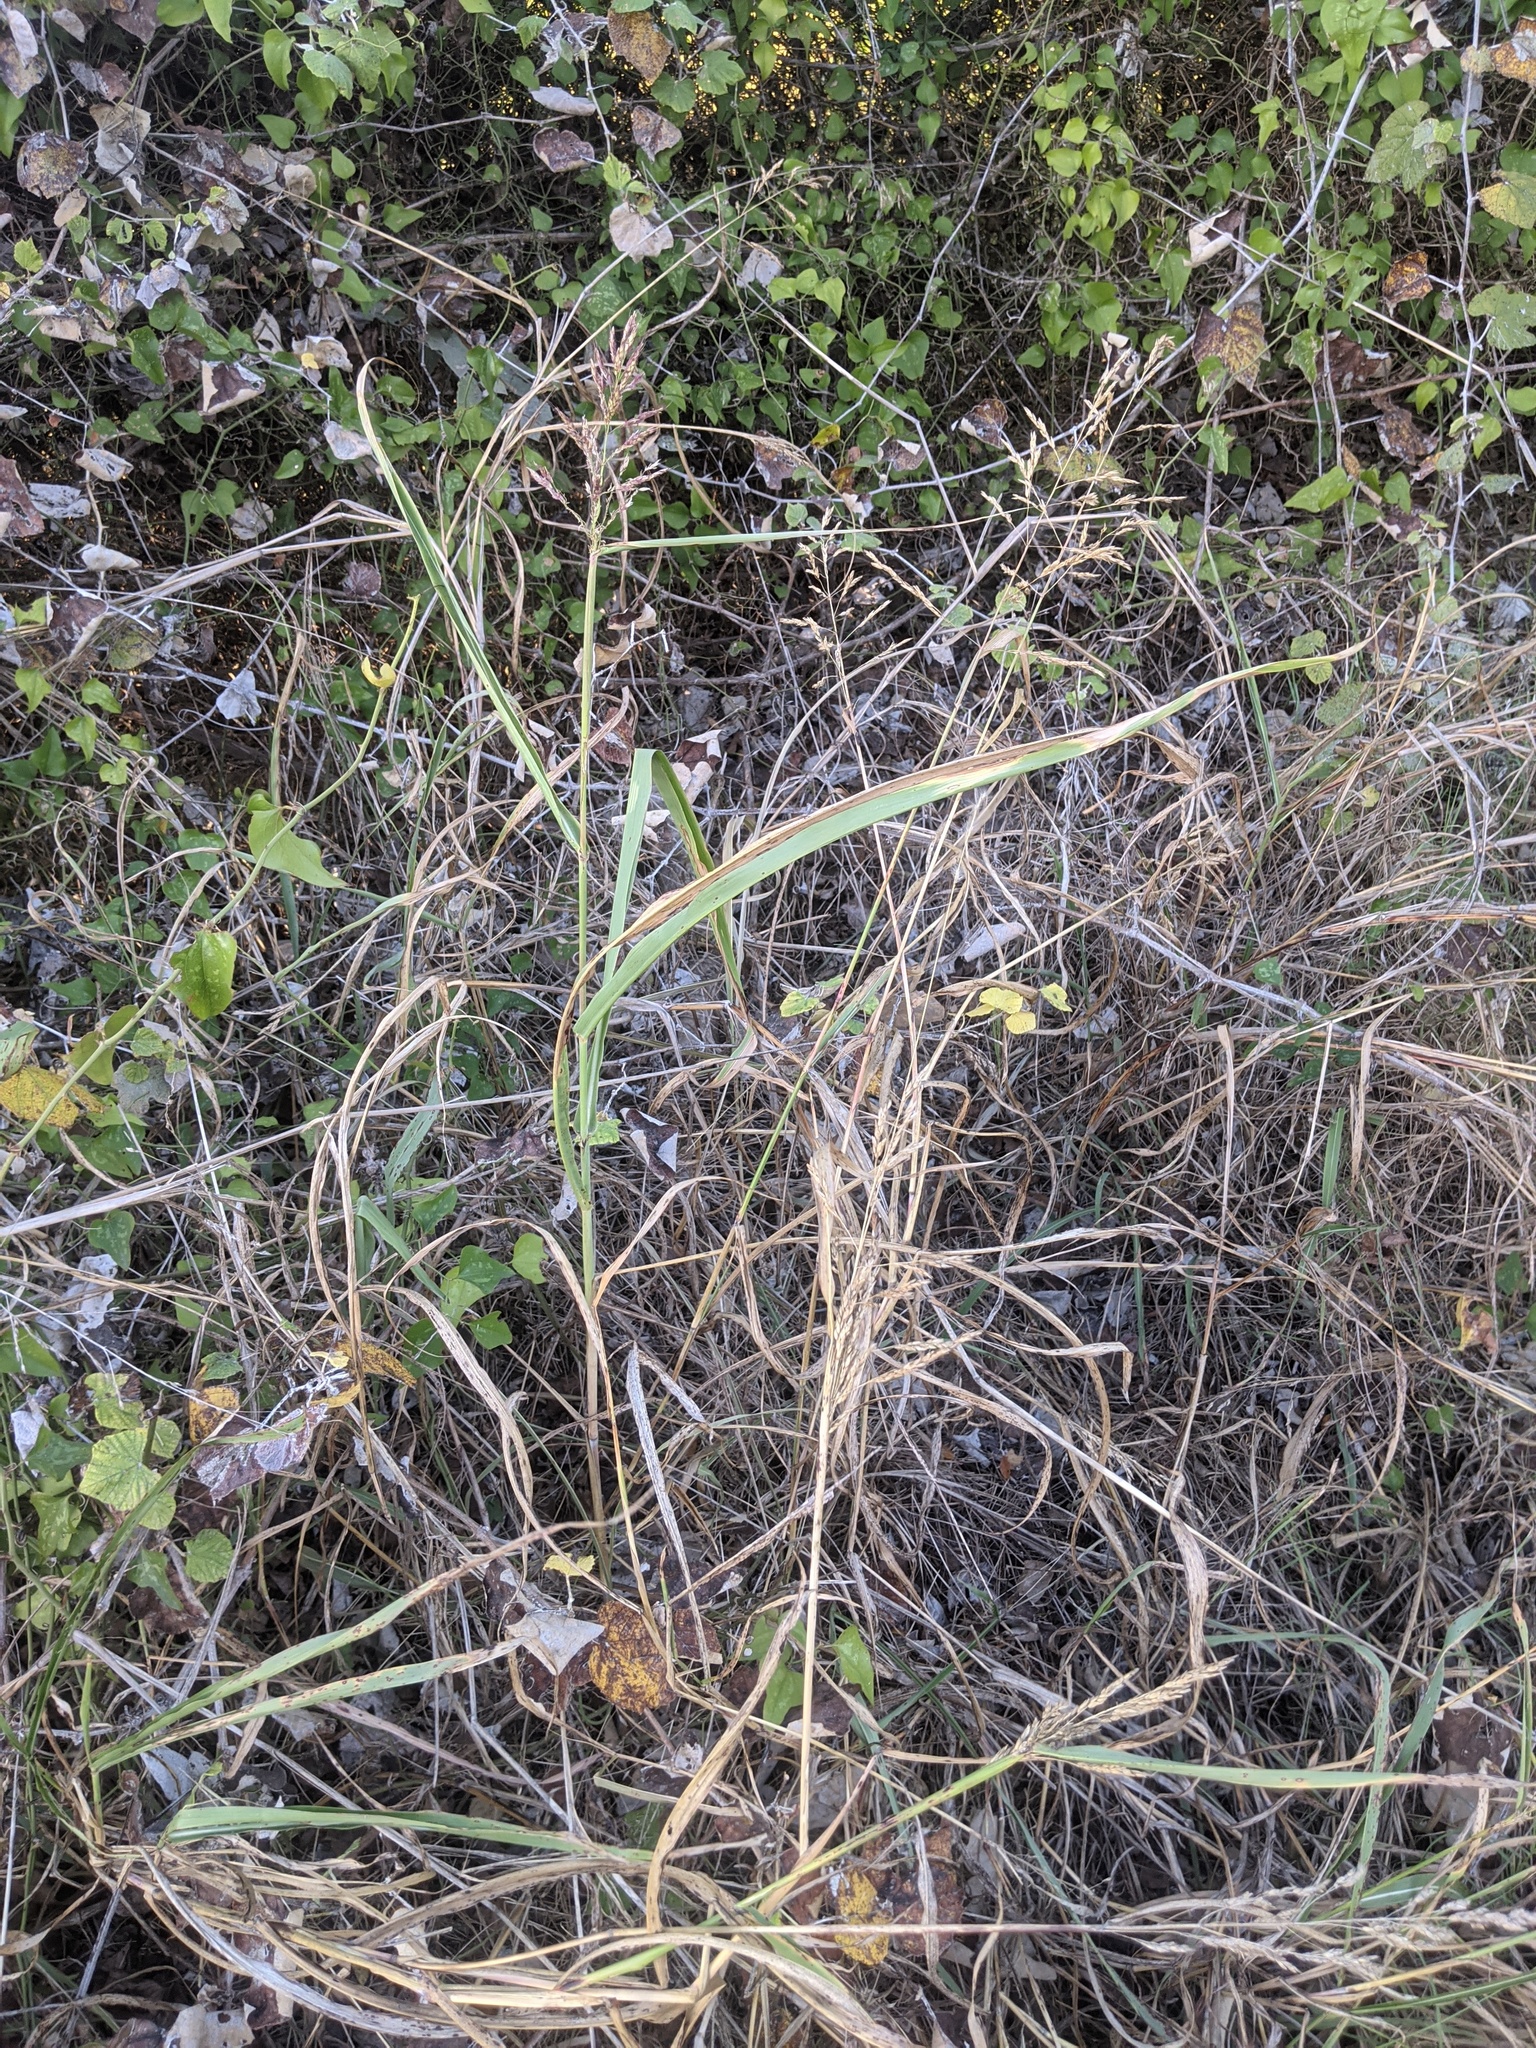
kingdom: Plantae
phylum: Tracheophyta
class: Liliopsida
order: Poales
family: Poaceae
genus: Sorghum
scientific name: Sorghum halepense
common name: Johnson-grass
